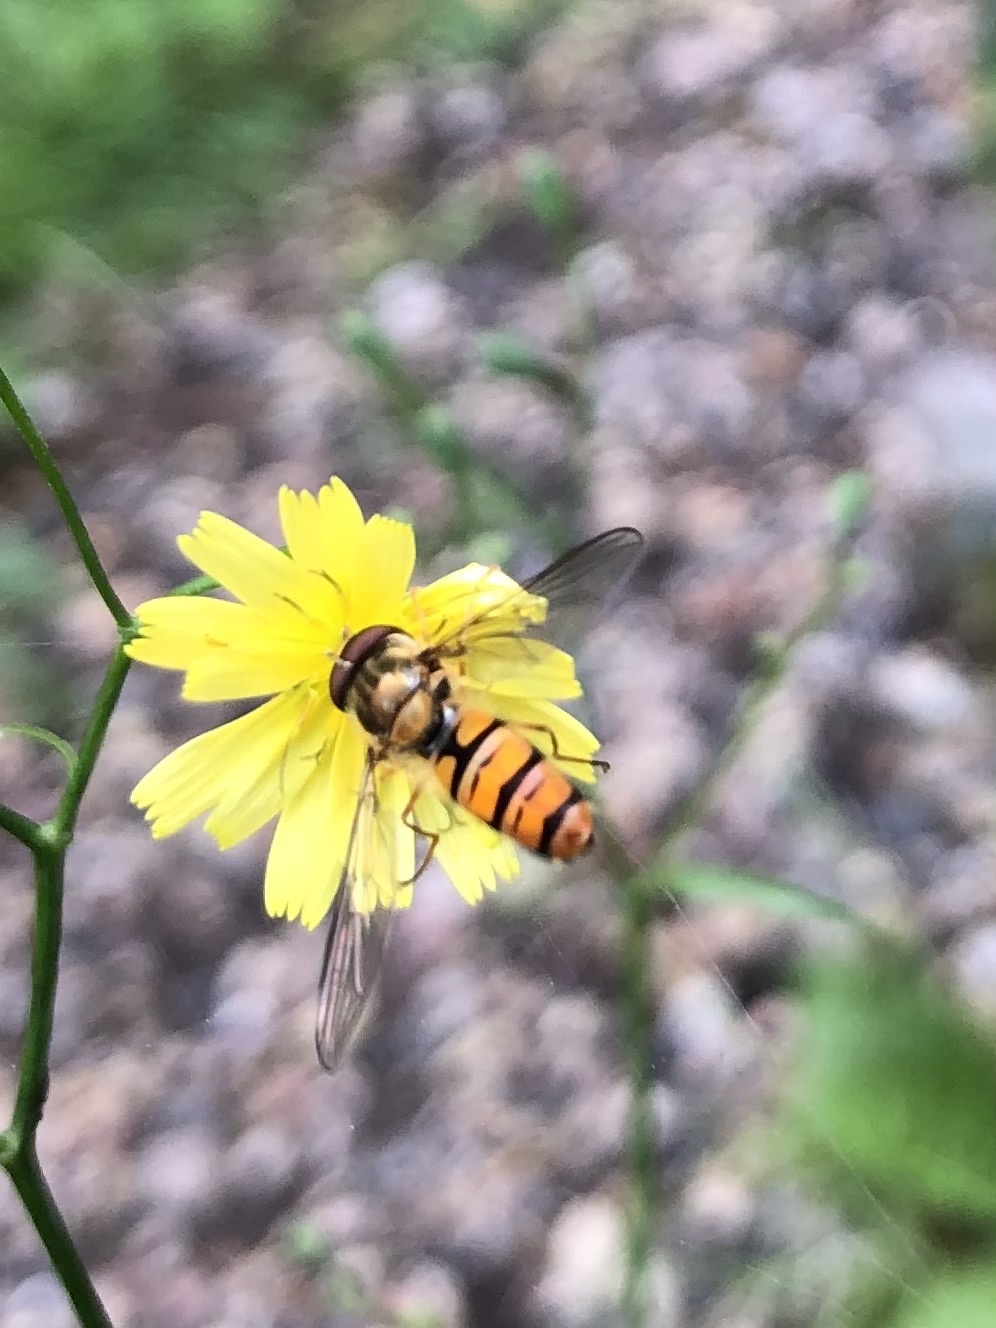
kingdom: Animalia
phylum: Arthropoda
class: Insecta
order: Diptera
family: Syrphidae
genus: Episyrphus
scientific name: Episyrphus balteatus
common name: Marmalade hoverfly
